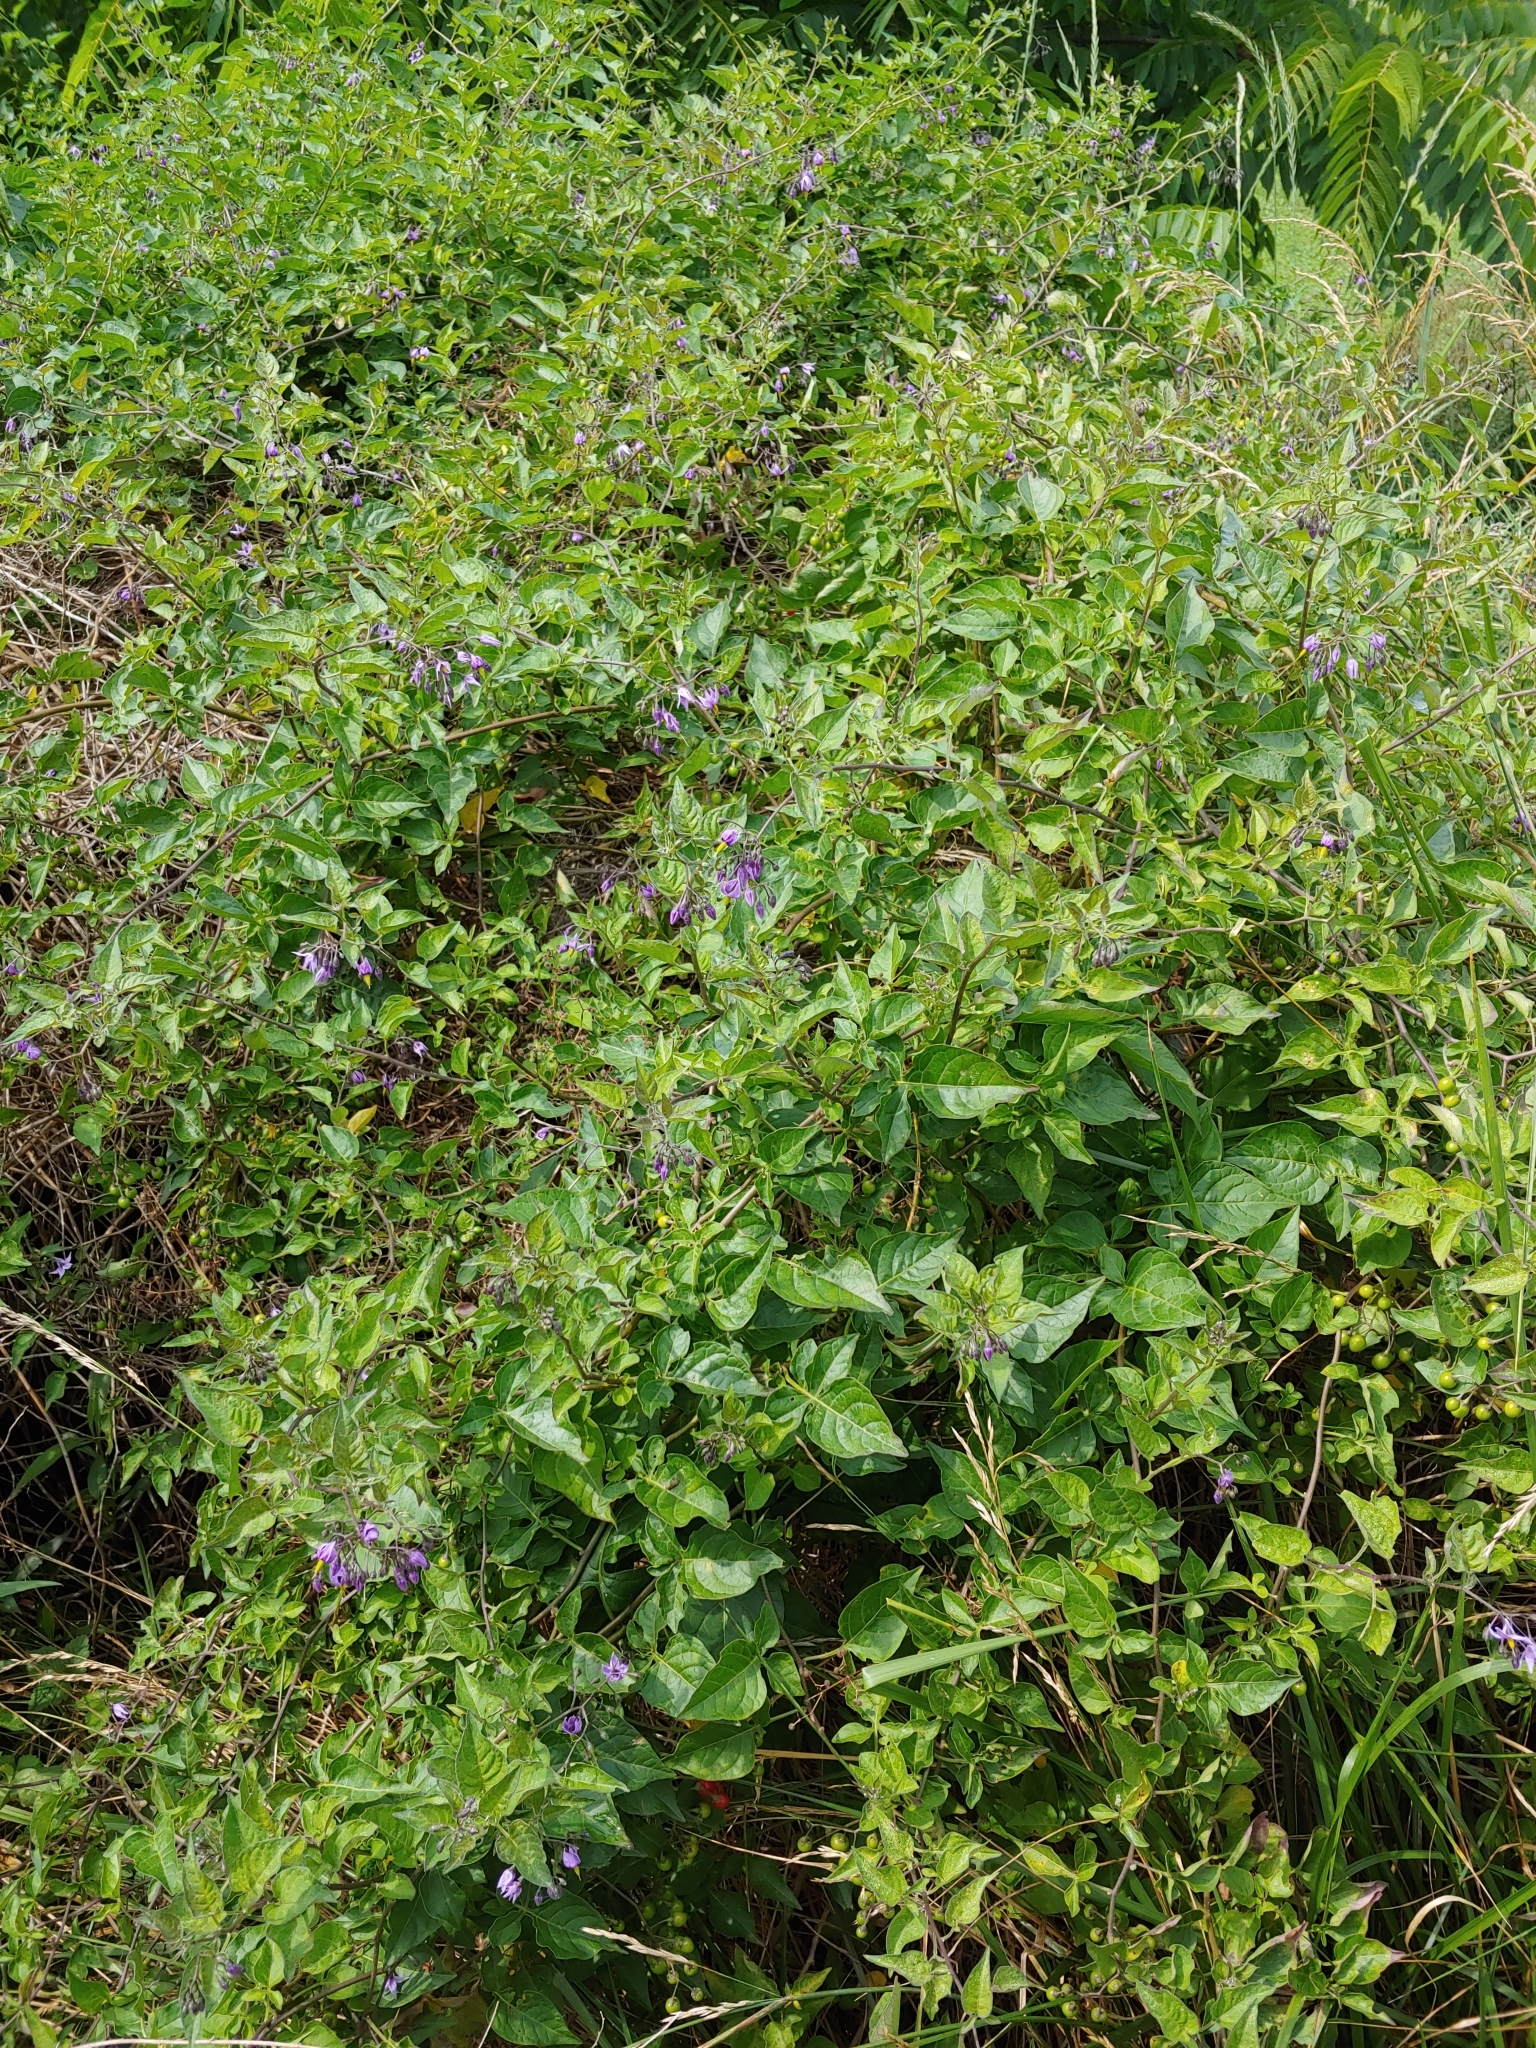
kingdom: Plantae
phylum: Tracheophyta
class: Magnoliopsida
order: Solanales
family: Solanaceae
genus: Solanum
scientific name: Solanum dulcamara
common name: Climbing nightshade
